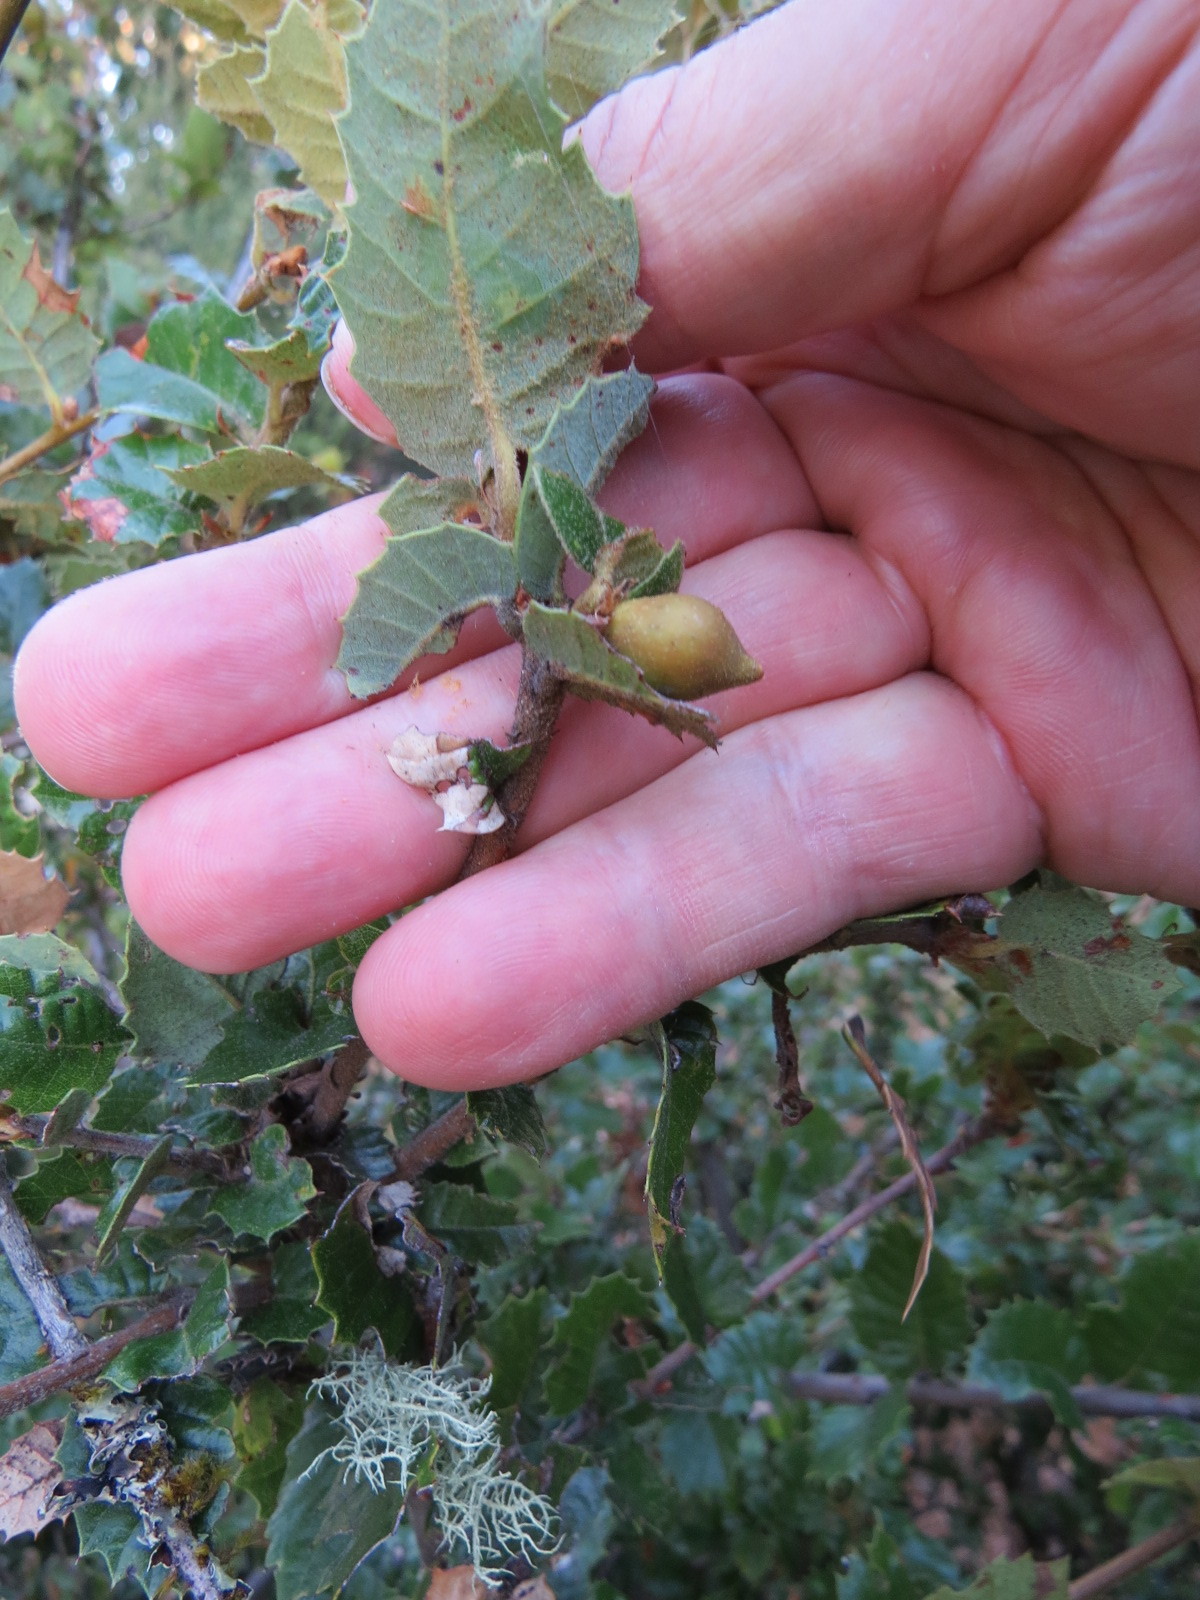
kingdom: Animalia
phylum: Arthropoda
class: Insecta
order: Hymenoptera
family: Cynipidae
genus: Heteroecus
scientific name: Heteroecus pacificus
